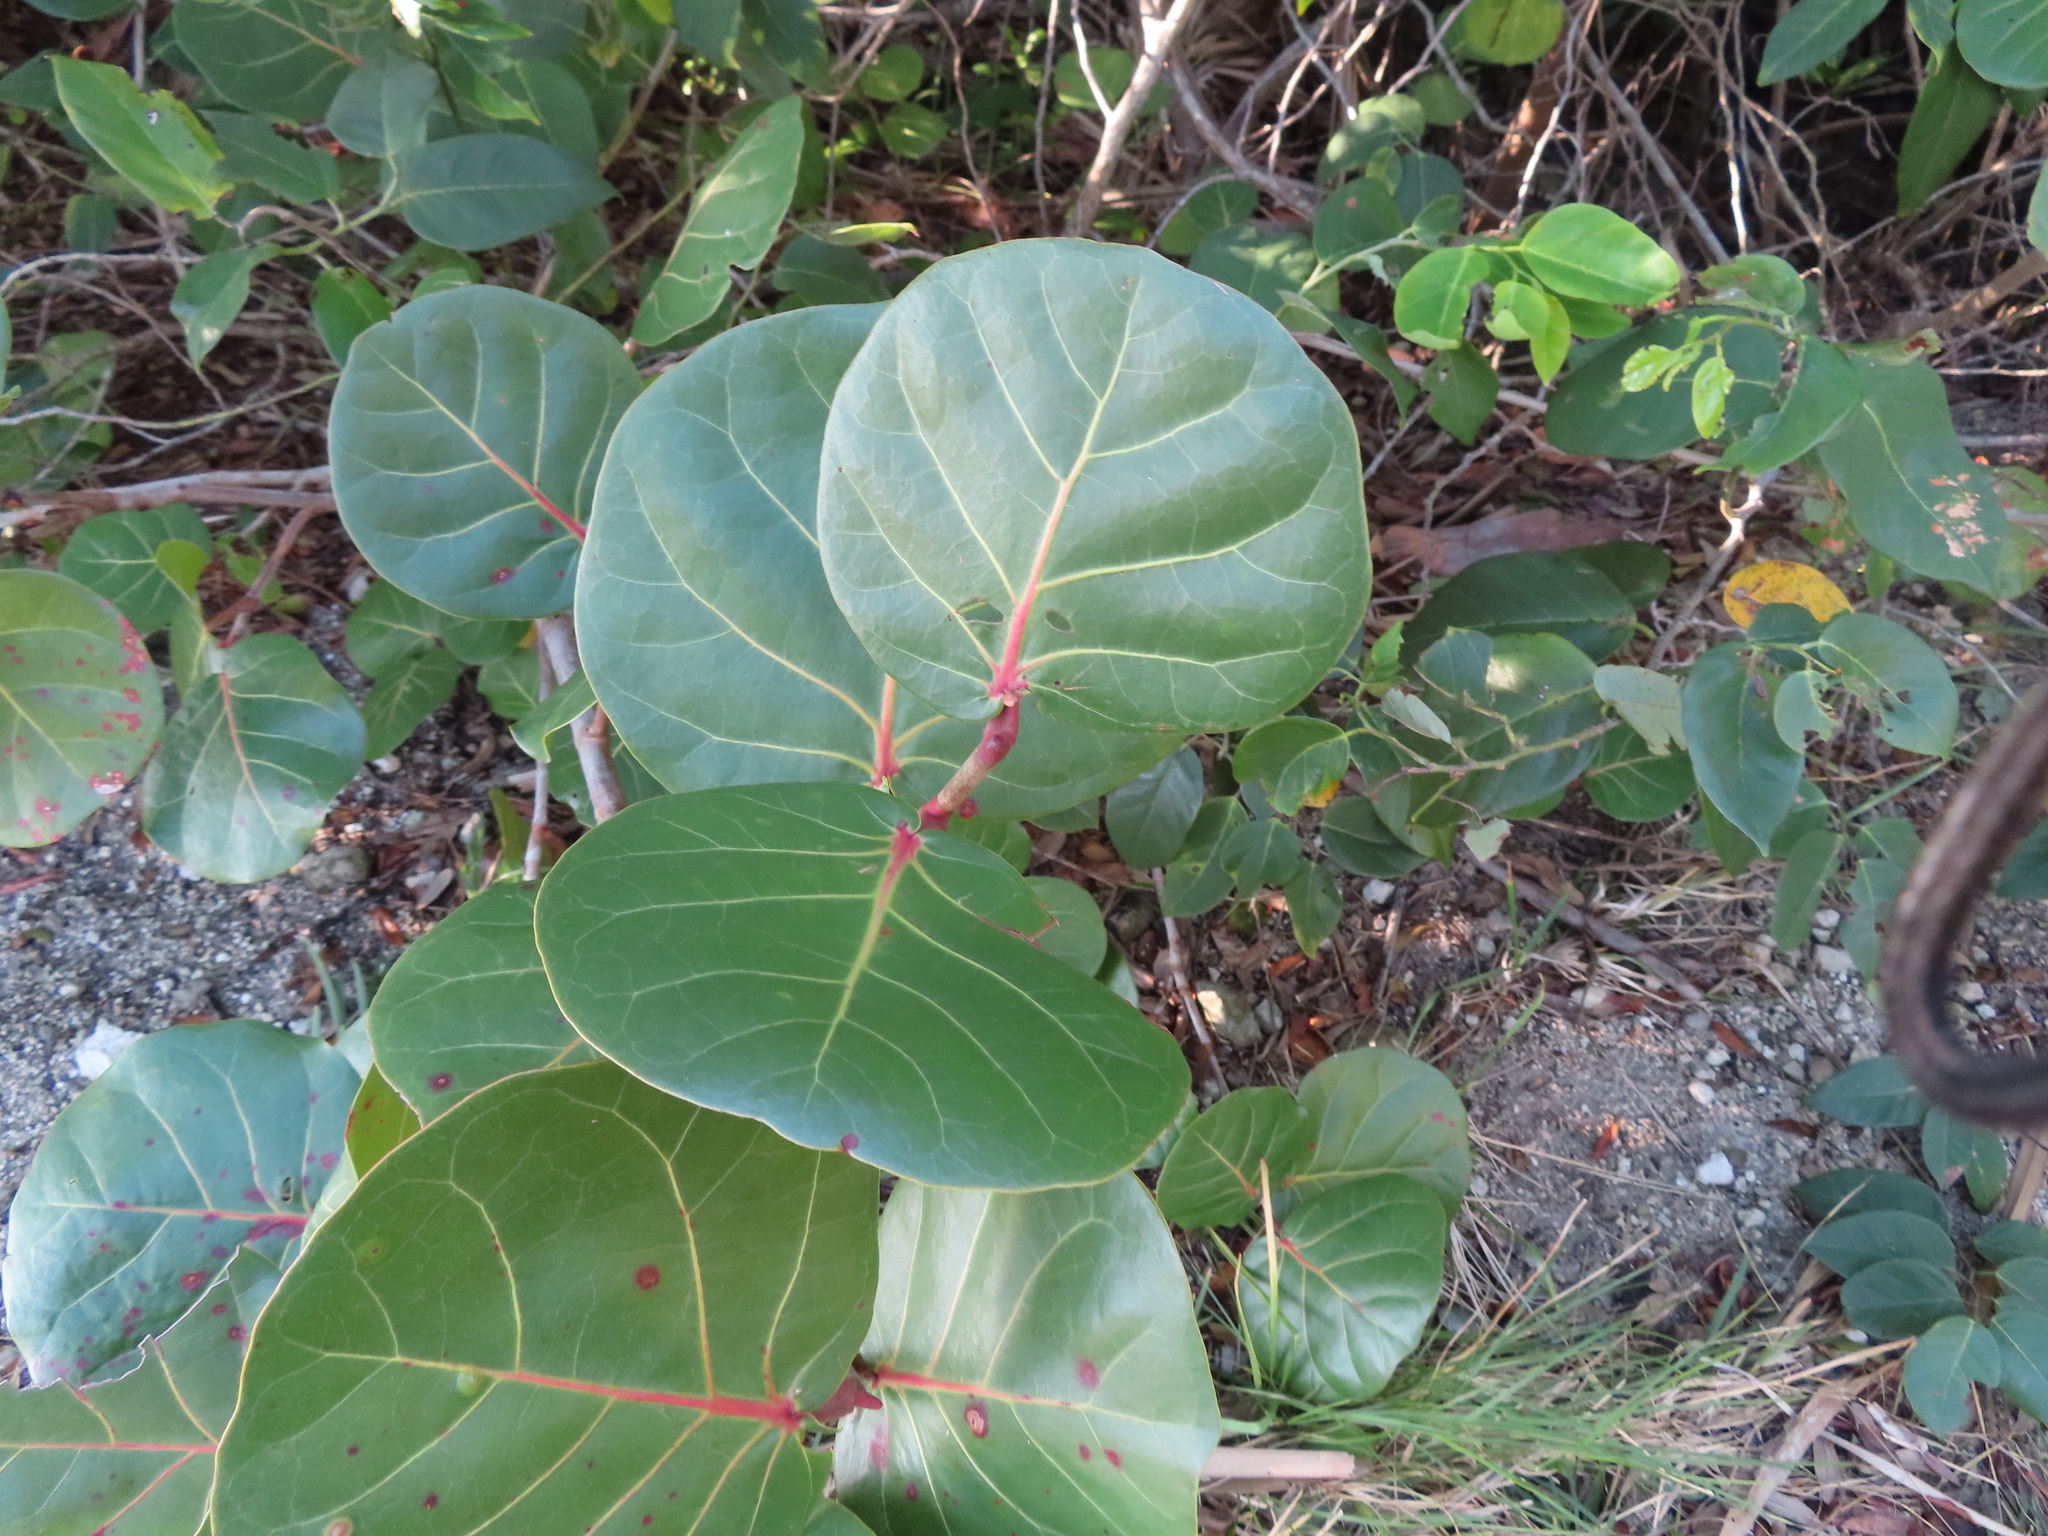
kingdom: Plantae
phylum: Tracheophyta
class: Magnoliopsida
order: Caryophyllales
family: Polygonaceae
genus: Coccoloba
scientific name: Coccoloba uvifera
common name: Seagrape
